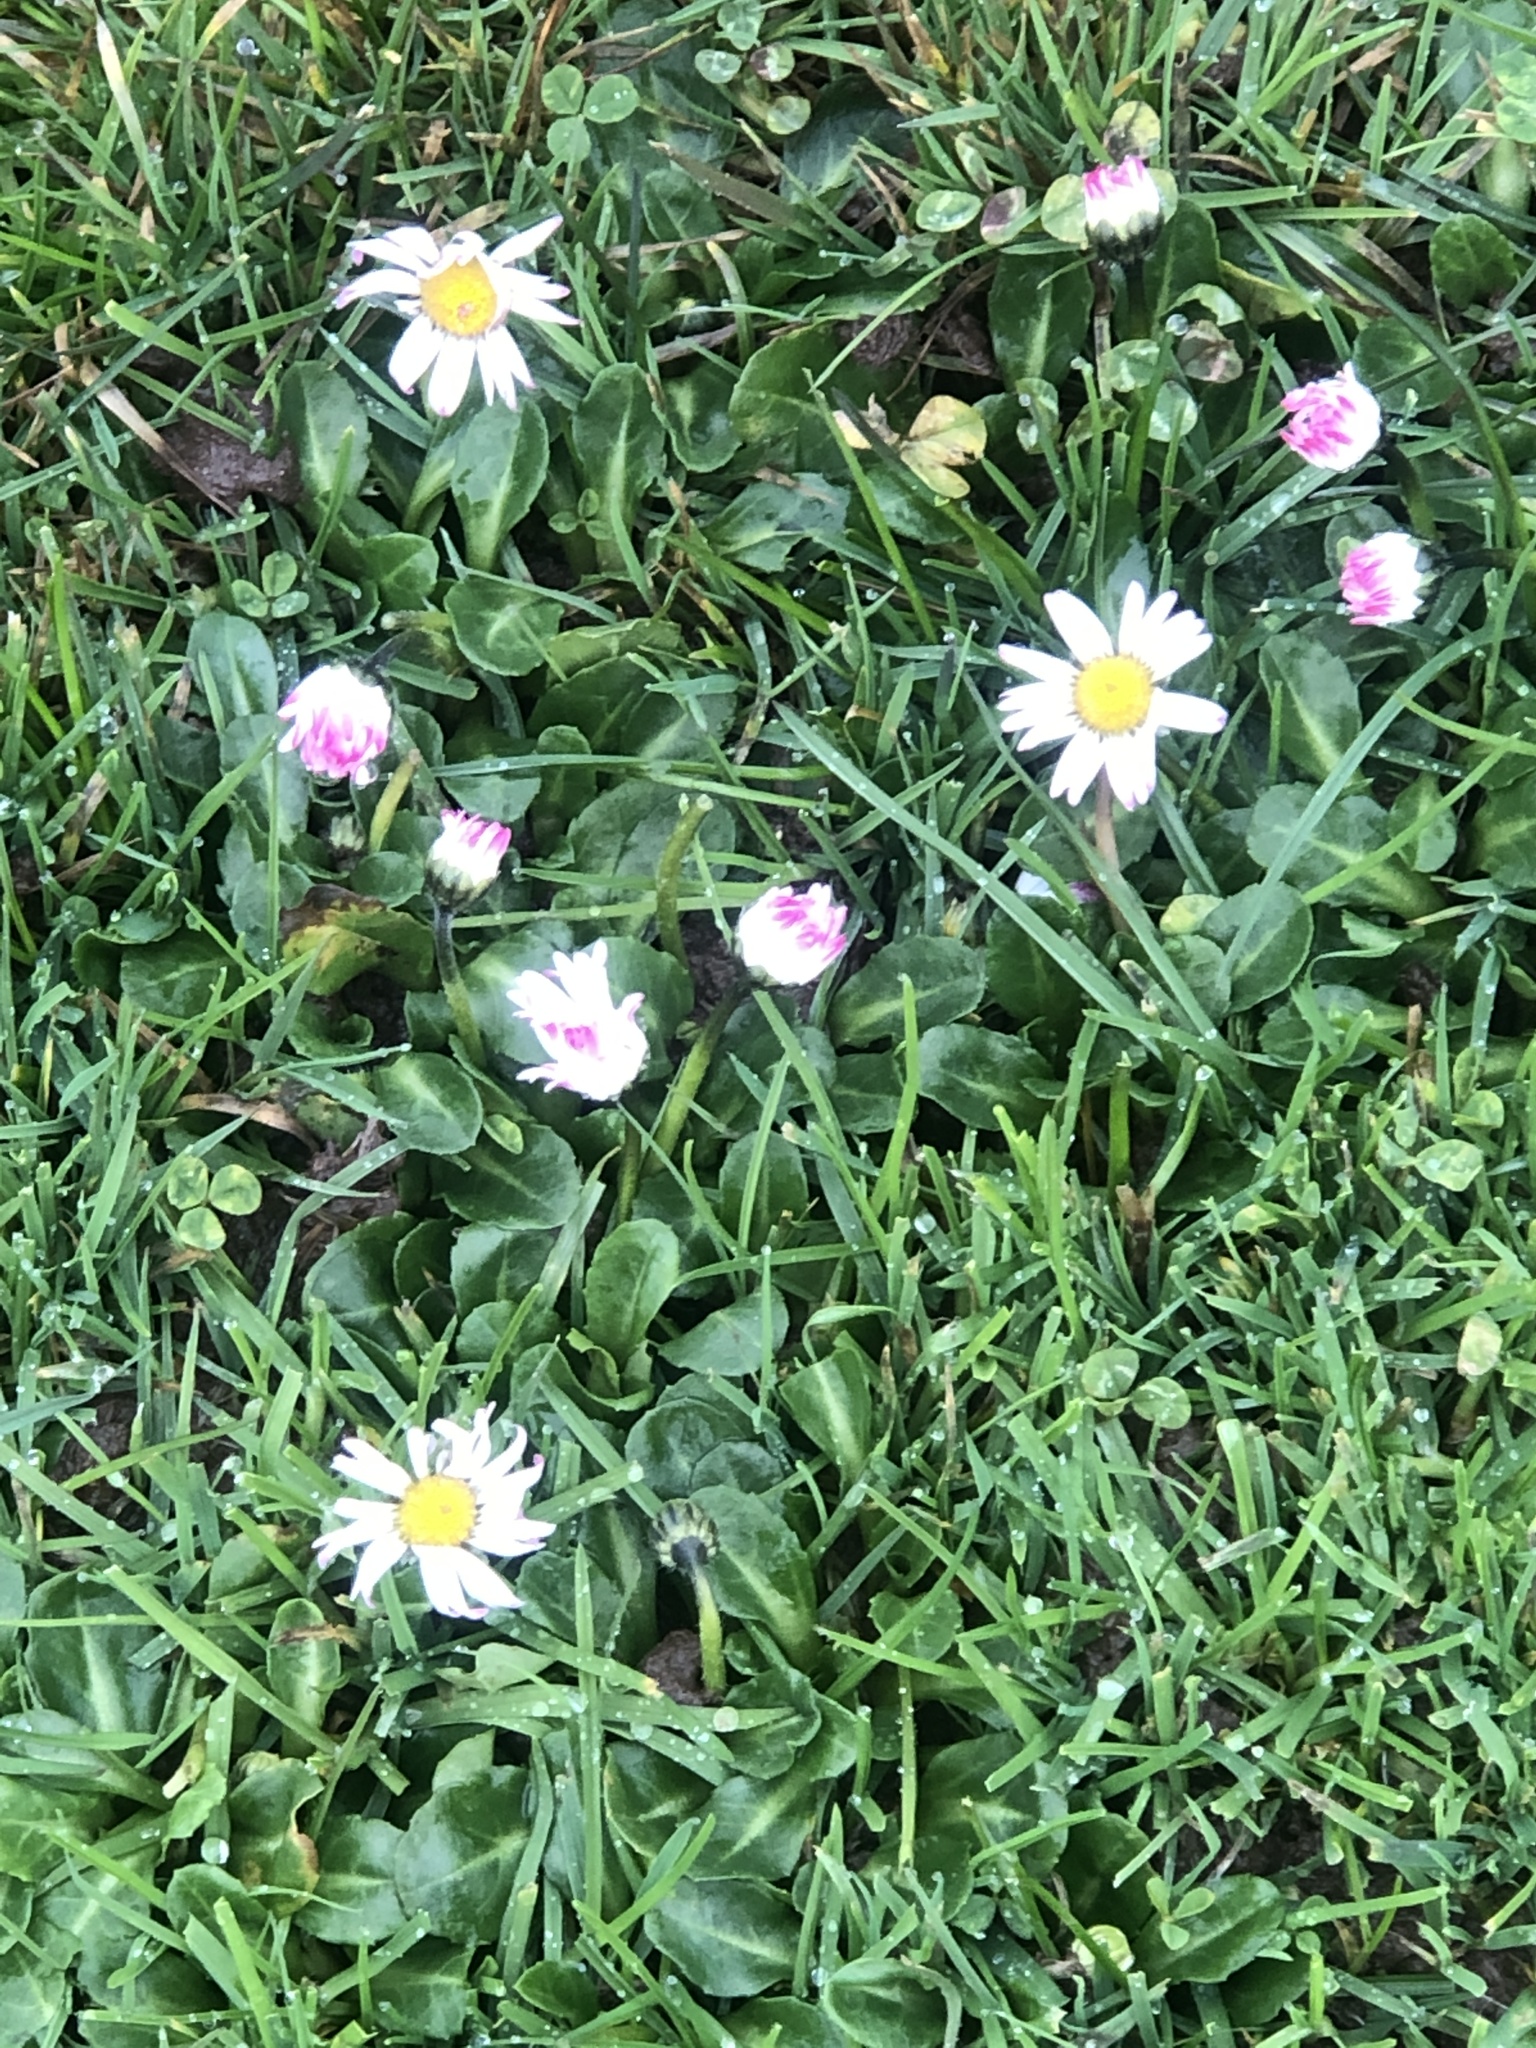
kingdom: Plantae
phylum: Tracheophyta
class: Magnoliopsida
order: Asterales
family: Asteraceae
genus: Bellis
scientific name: Bellis perennis
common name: Lawndaisy
